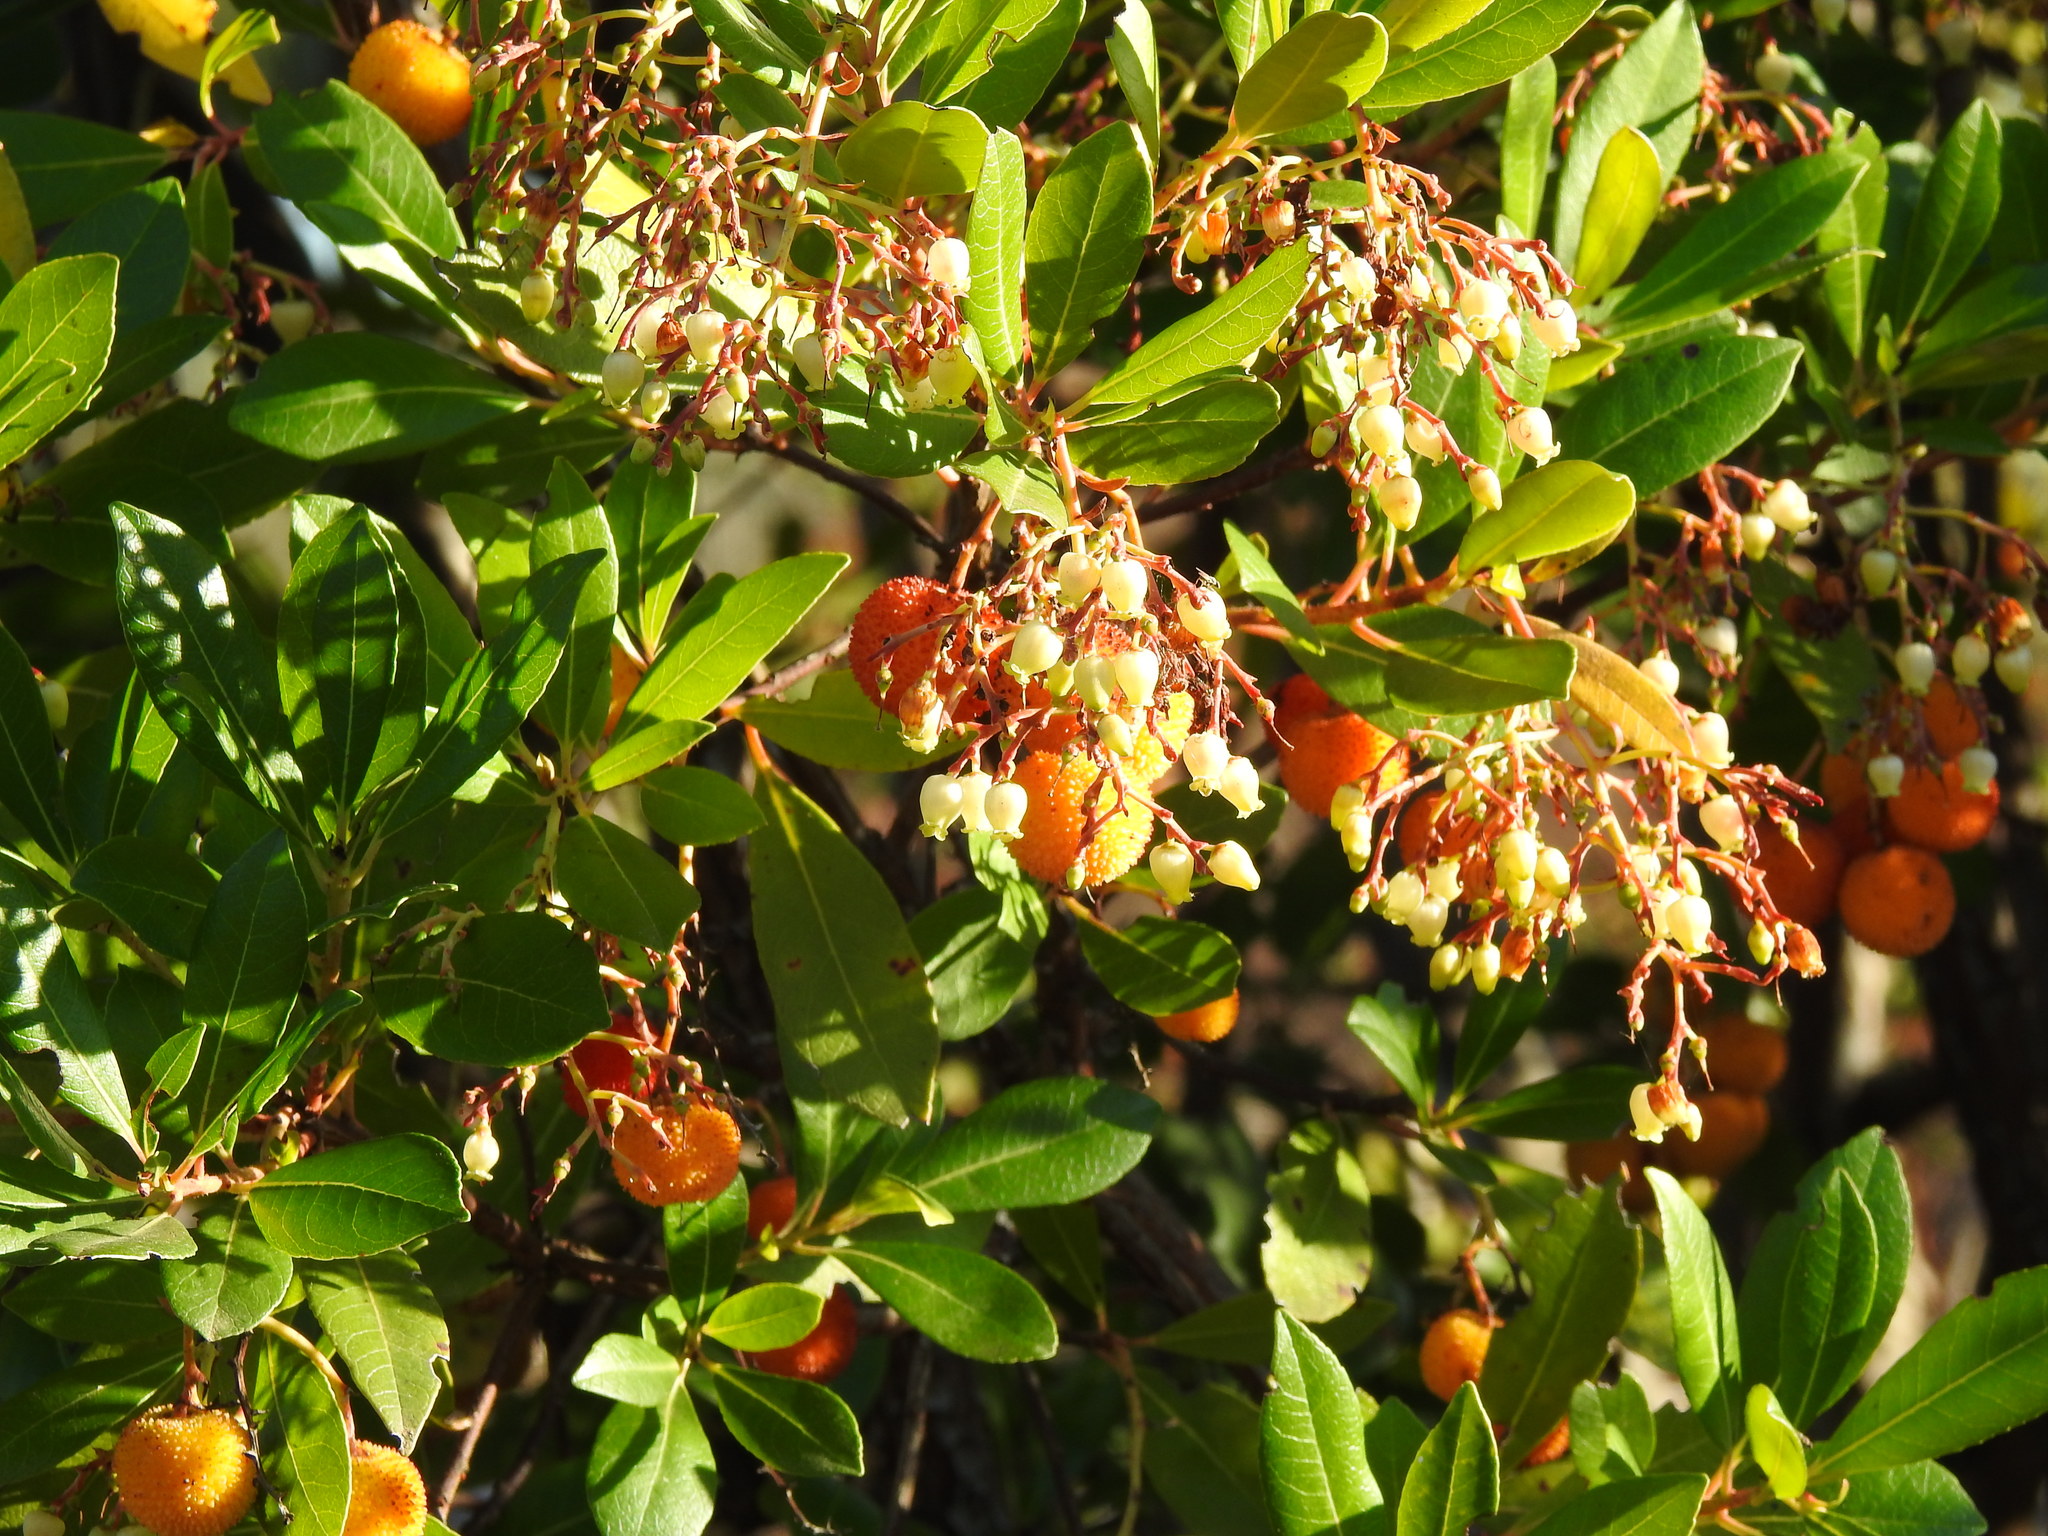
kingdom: Plantae
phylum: Tracheophyta
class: Magnoliopsida
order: Ericales
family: Ericaceae
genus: Arbutus
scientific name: Arbutus unedo
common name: Strawberry-tree
